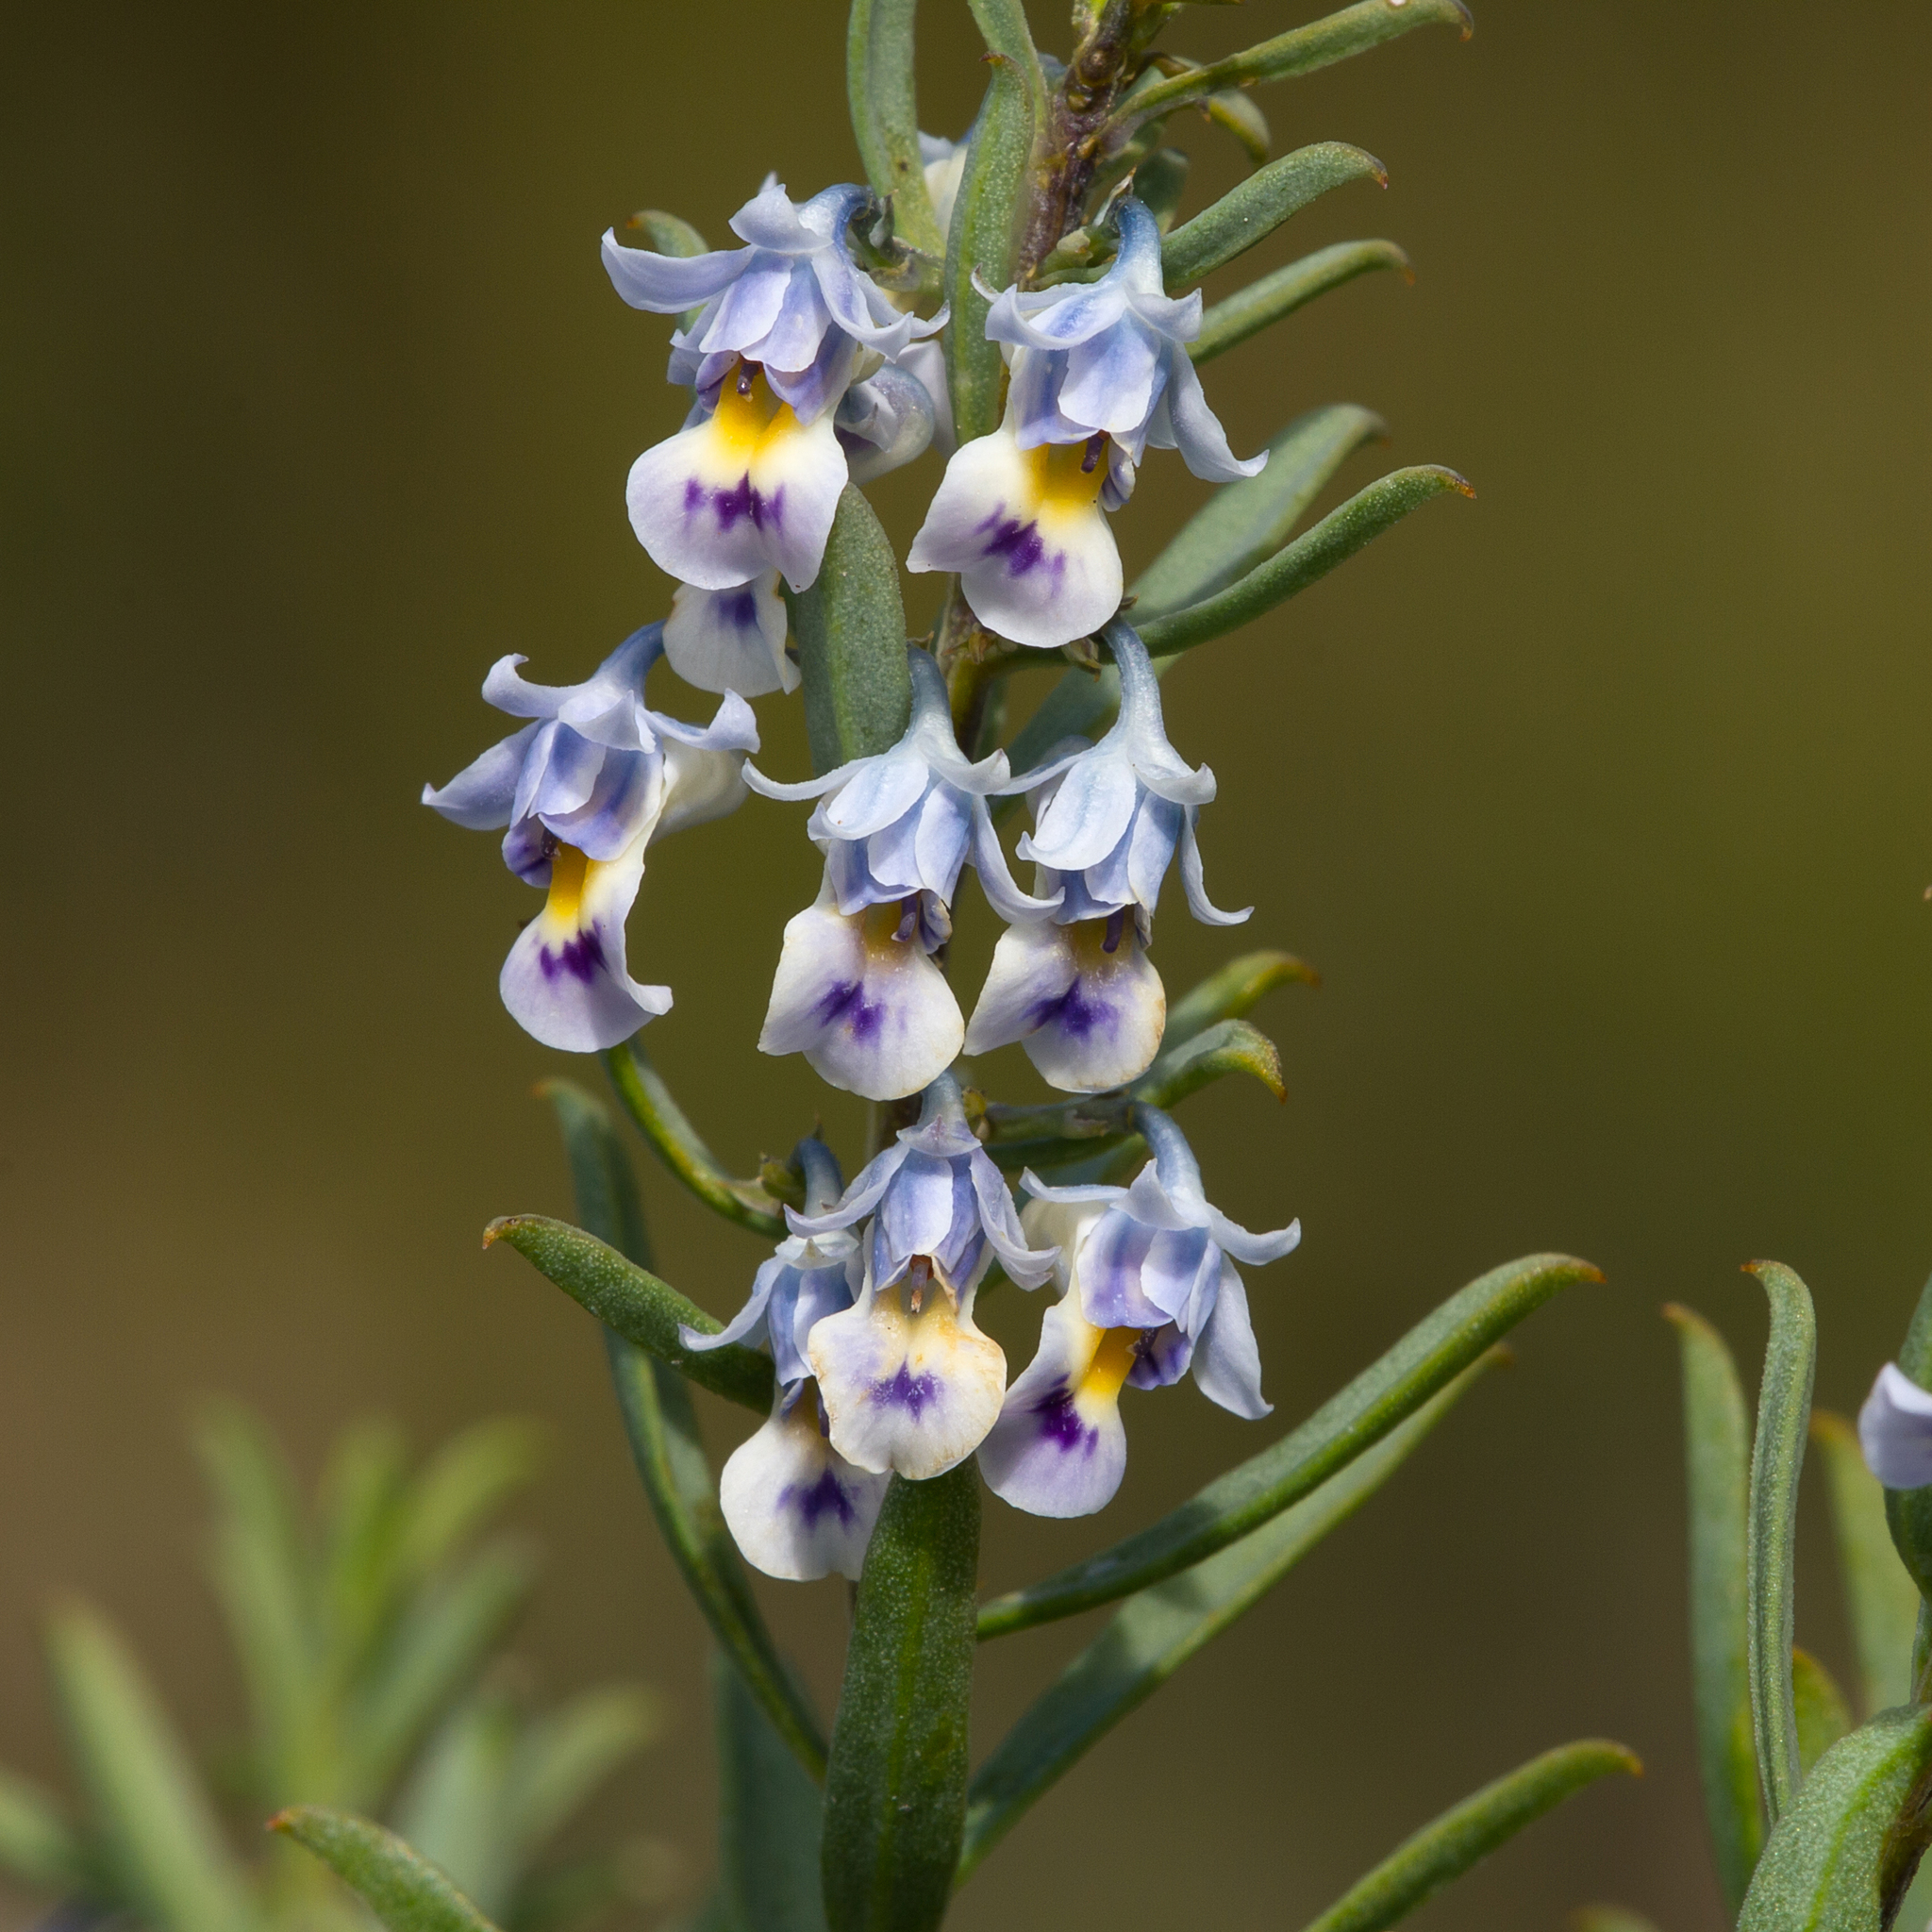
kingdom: Plantae
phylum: Tracheophyta
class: Magnoliopsida
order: Malpighiales
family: Violaceae
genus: Pigea
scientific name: Pigea floribunda
